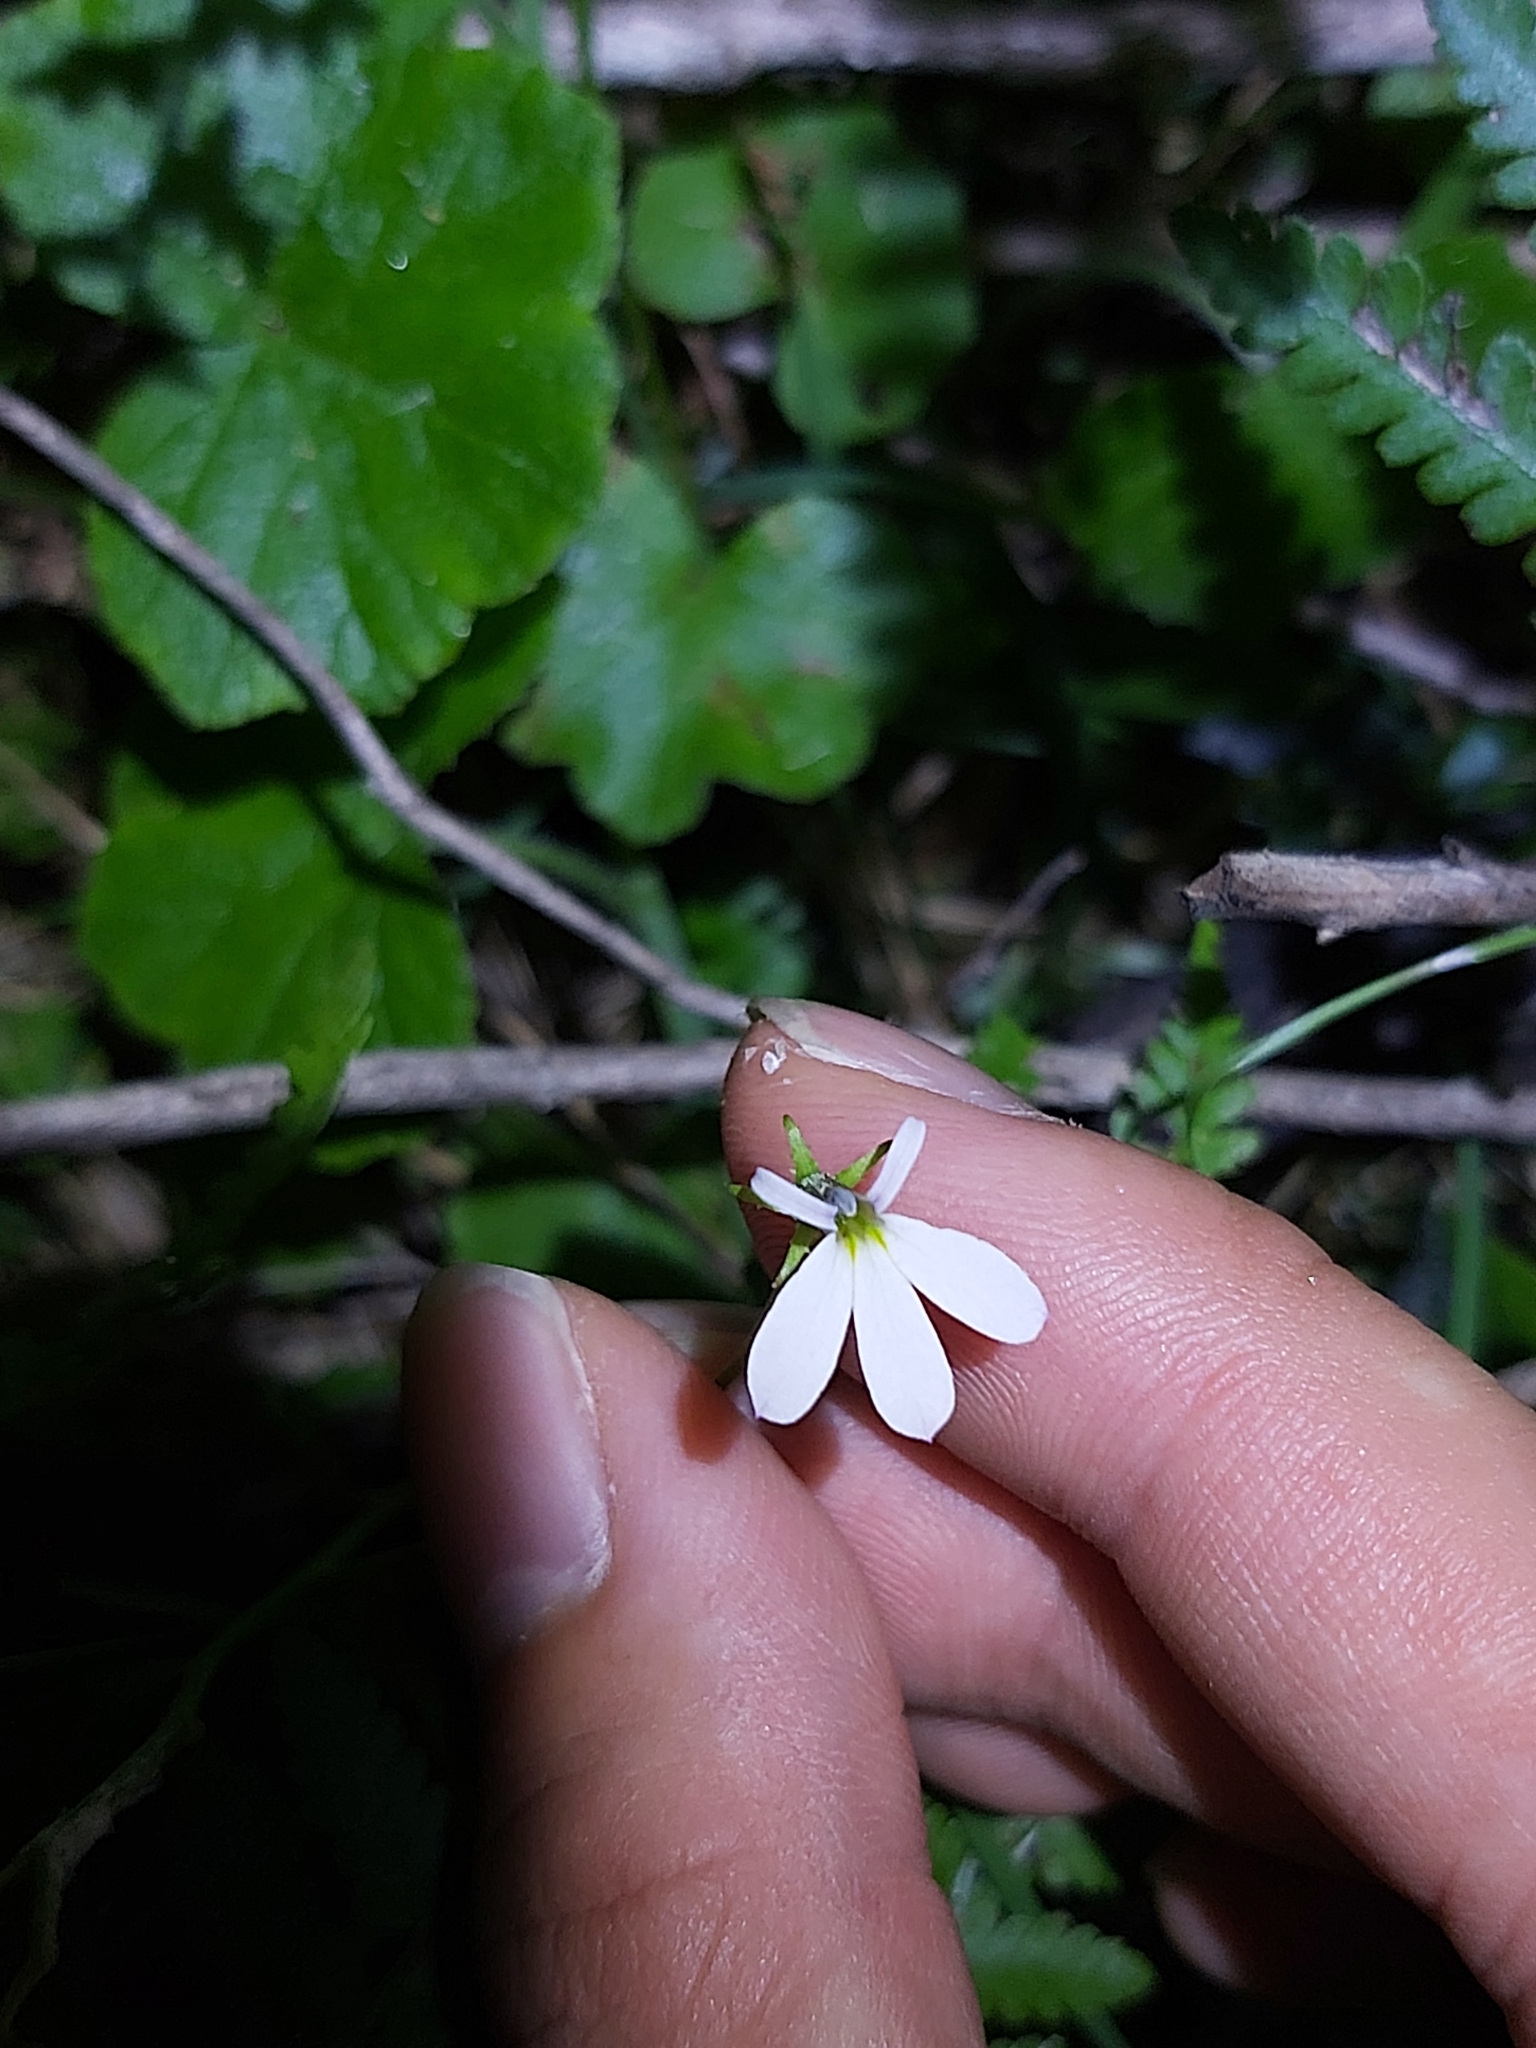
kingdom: Plantae
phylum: Tracheophyta
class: Magnoliopsida
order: Asterales
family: Campanulaceae
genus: Lobelia
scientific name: Lobelia purpurascens
